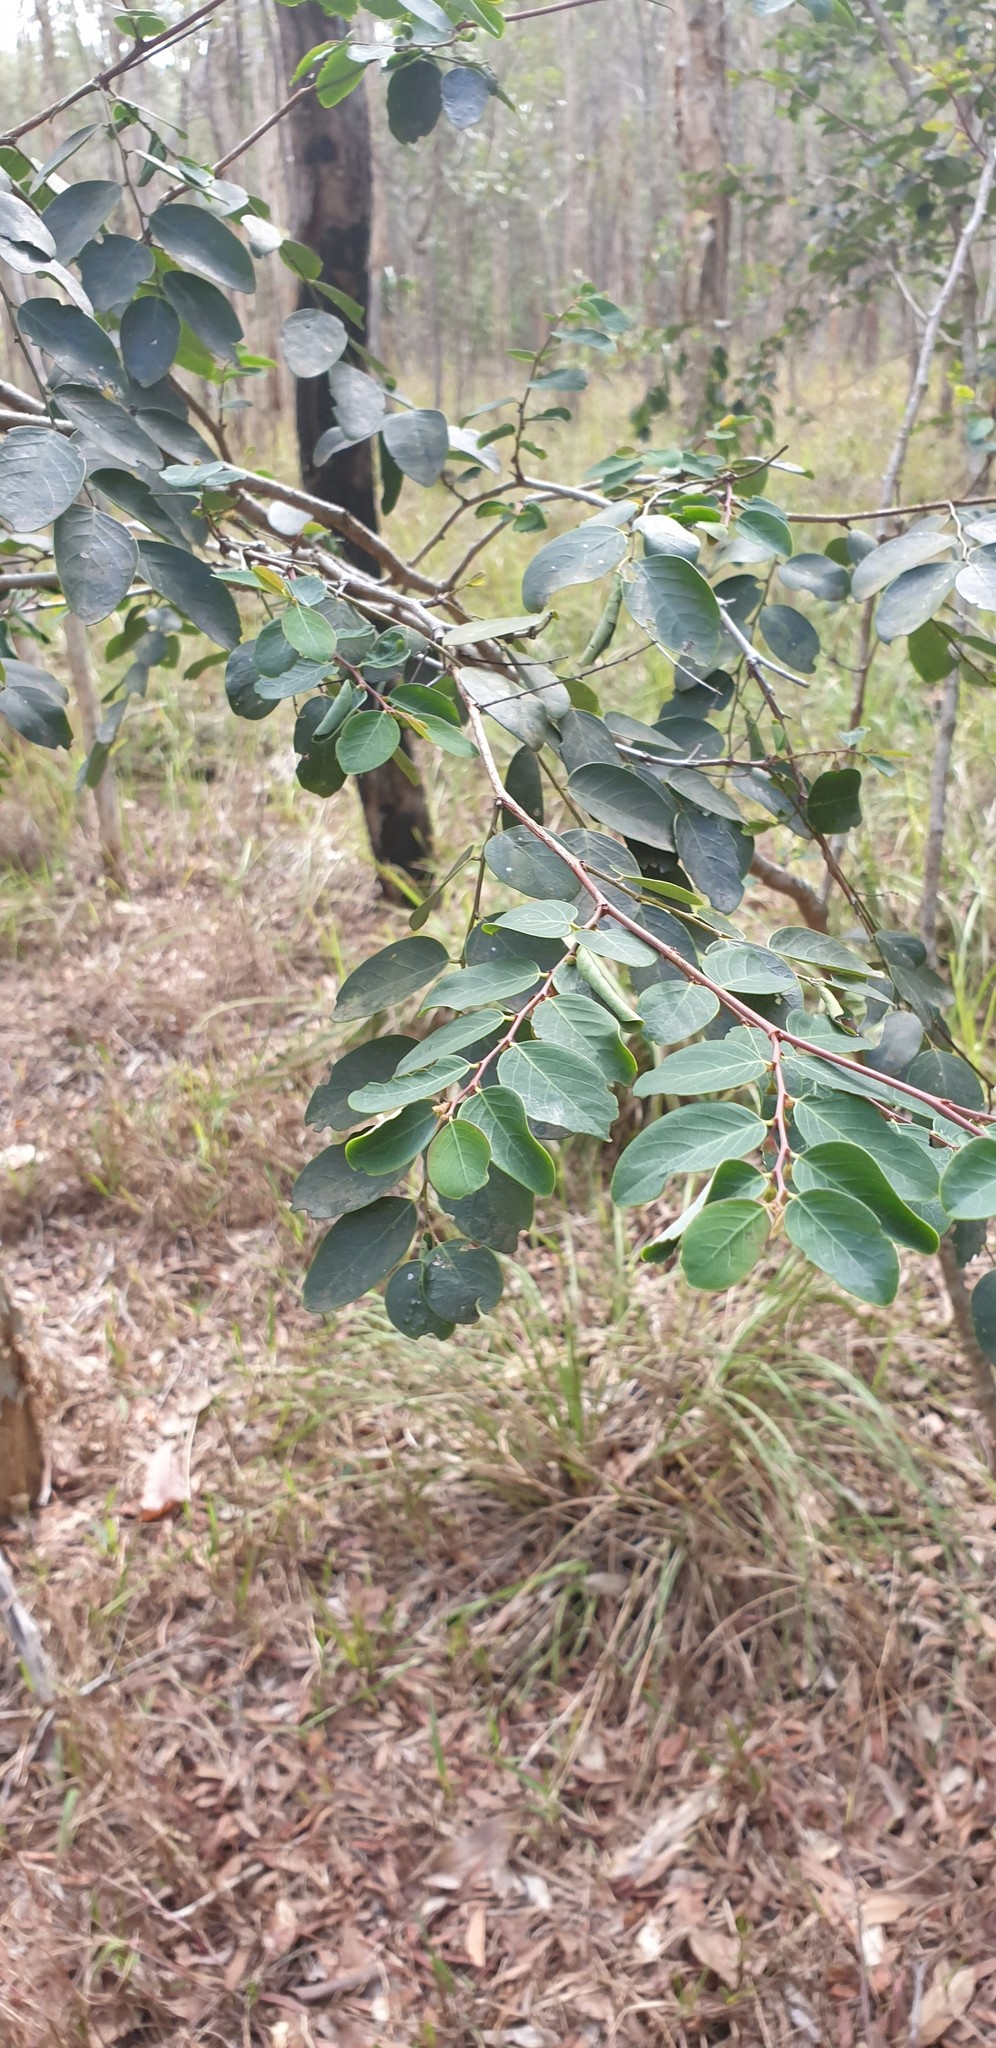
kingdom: Plantae
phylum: Tracheophyta
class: Magnoliopsida
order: Malpighiales
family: Phyllanthaceae
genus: Breynia
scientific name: Breynia oblongifolia
